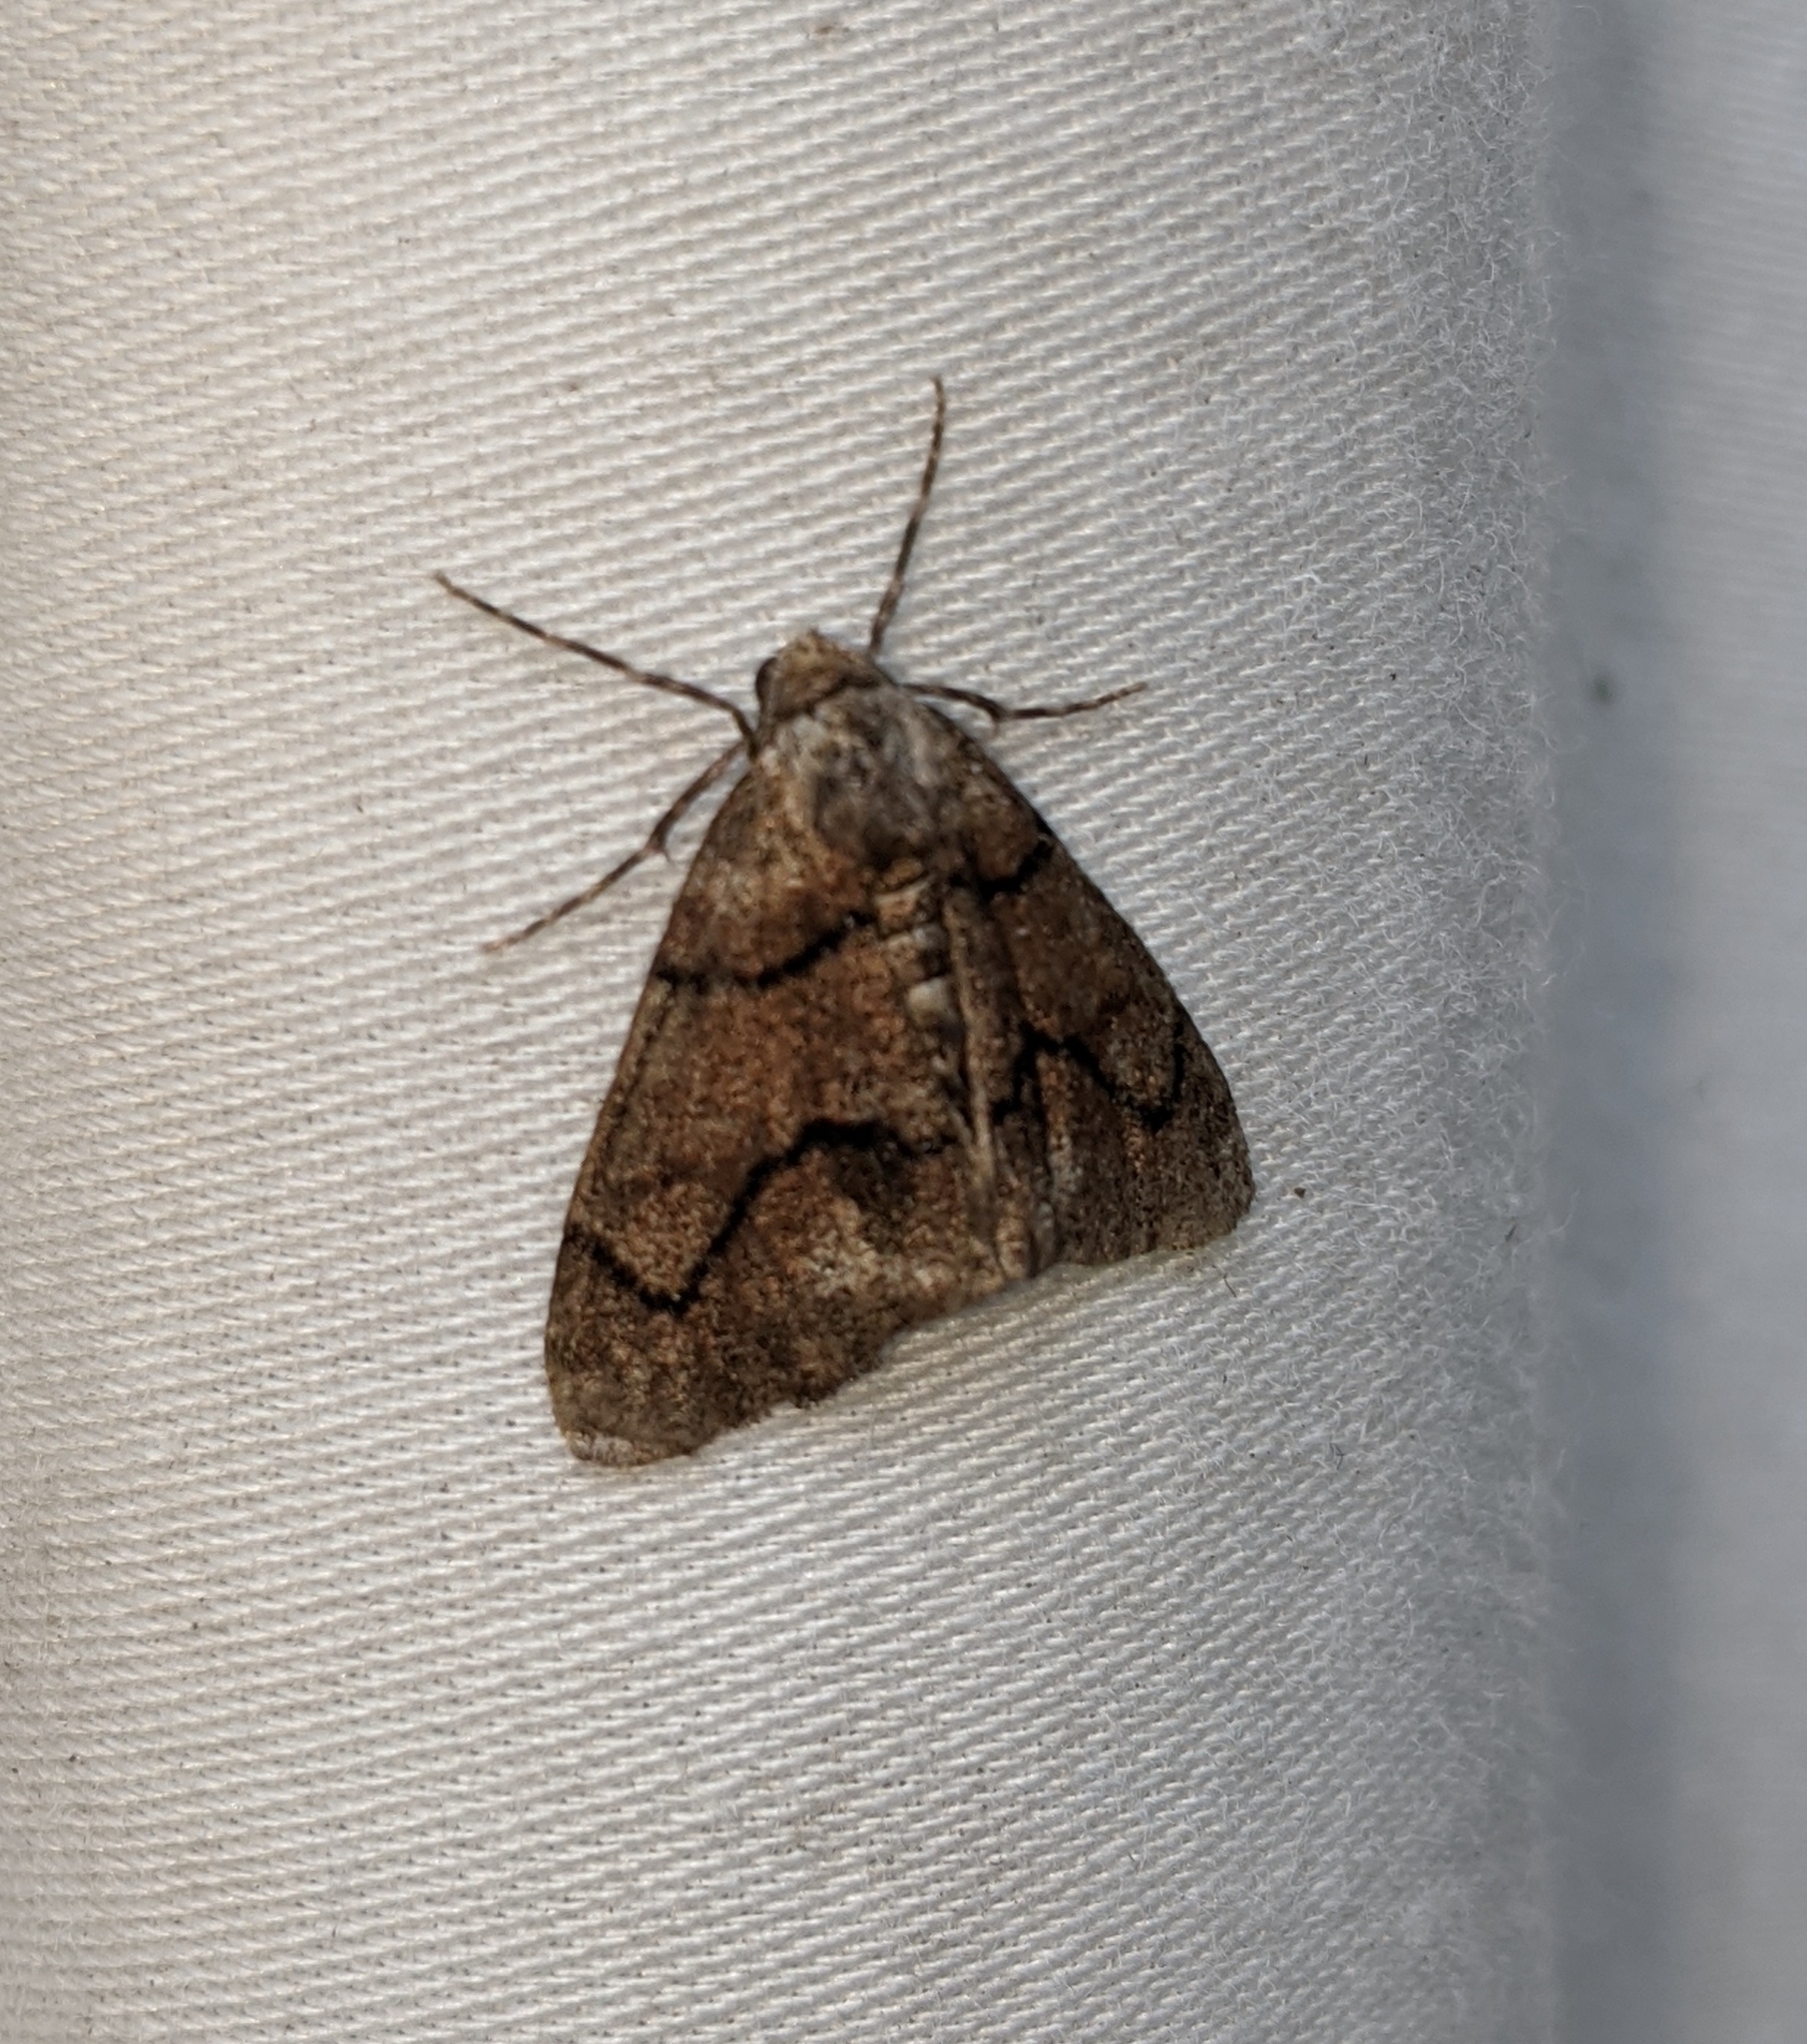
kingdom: Animalia
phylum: Arthropoda
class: Insecta
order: Lepidoptera
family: Geometridae
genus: Gabriola
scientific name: Gabriola dyari
